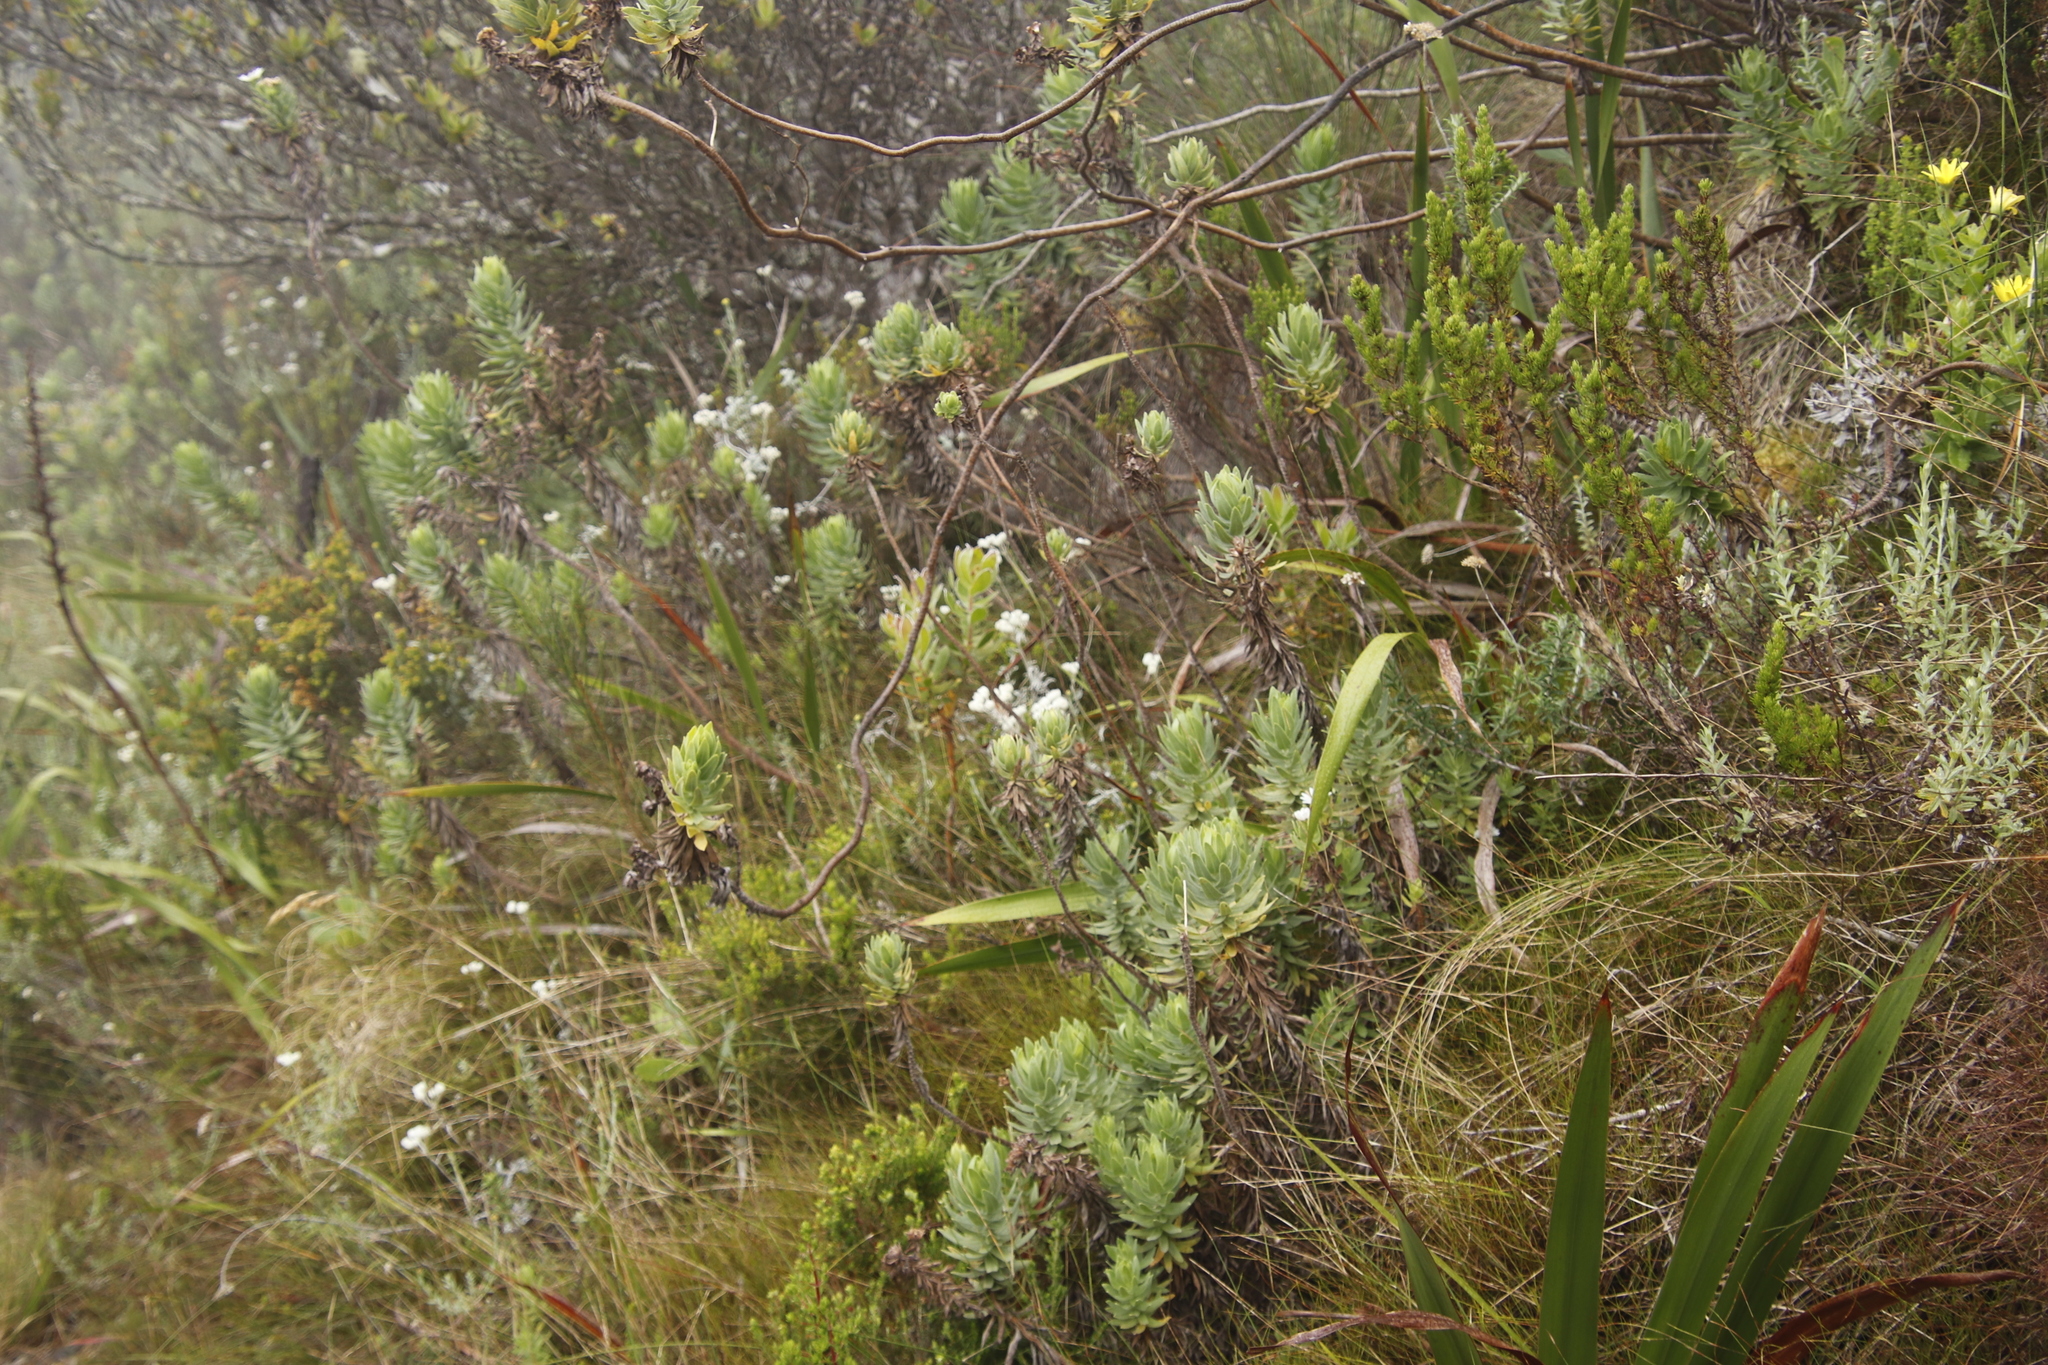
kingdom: Plantae
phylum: Tracheophyta
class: Magnoliopsida
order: Asterales
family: Asteraceae
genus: Osmitopsis
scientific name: Osmitopsis asteriscoides
